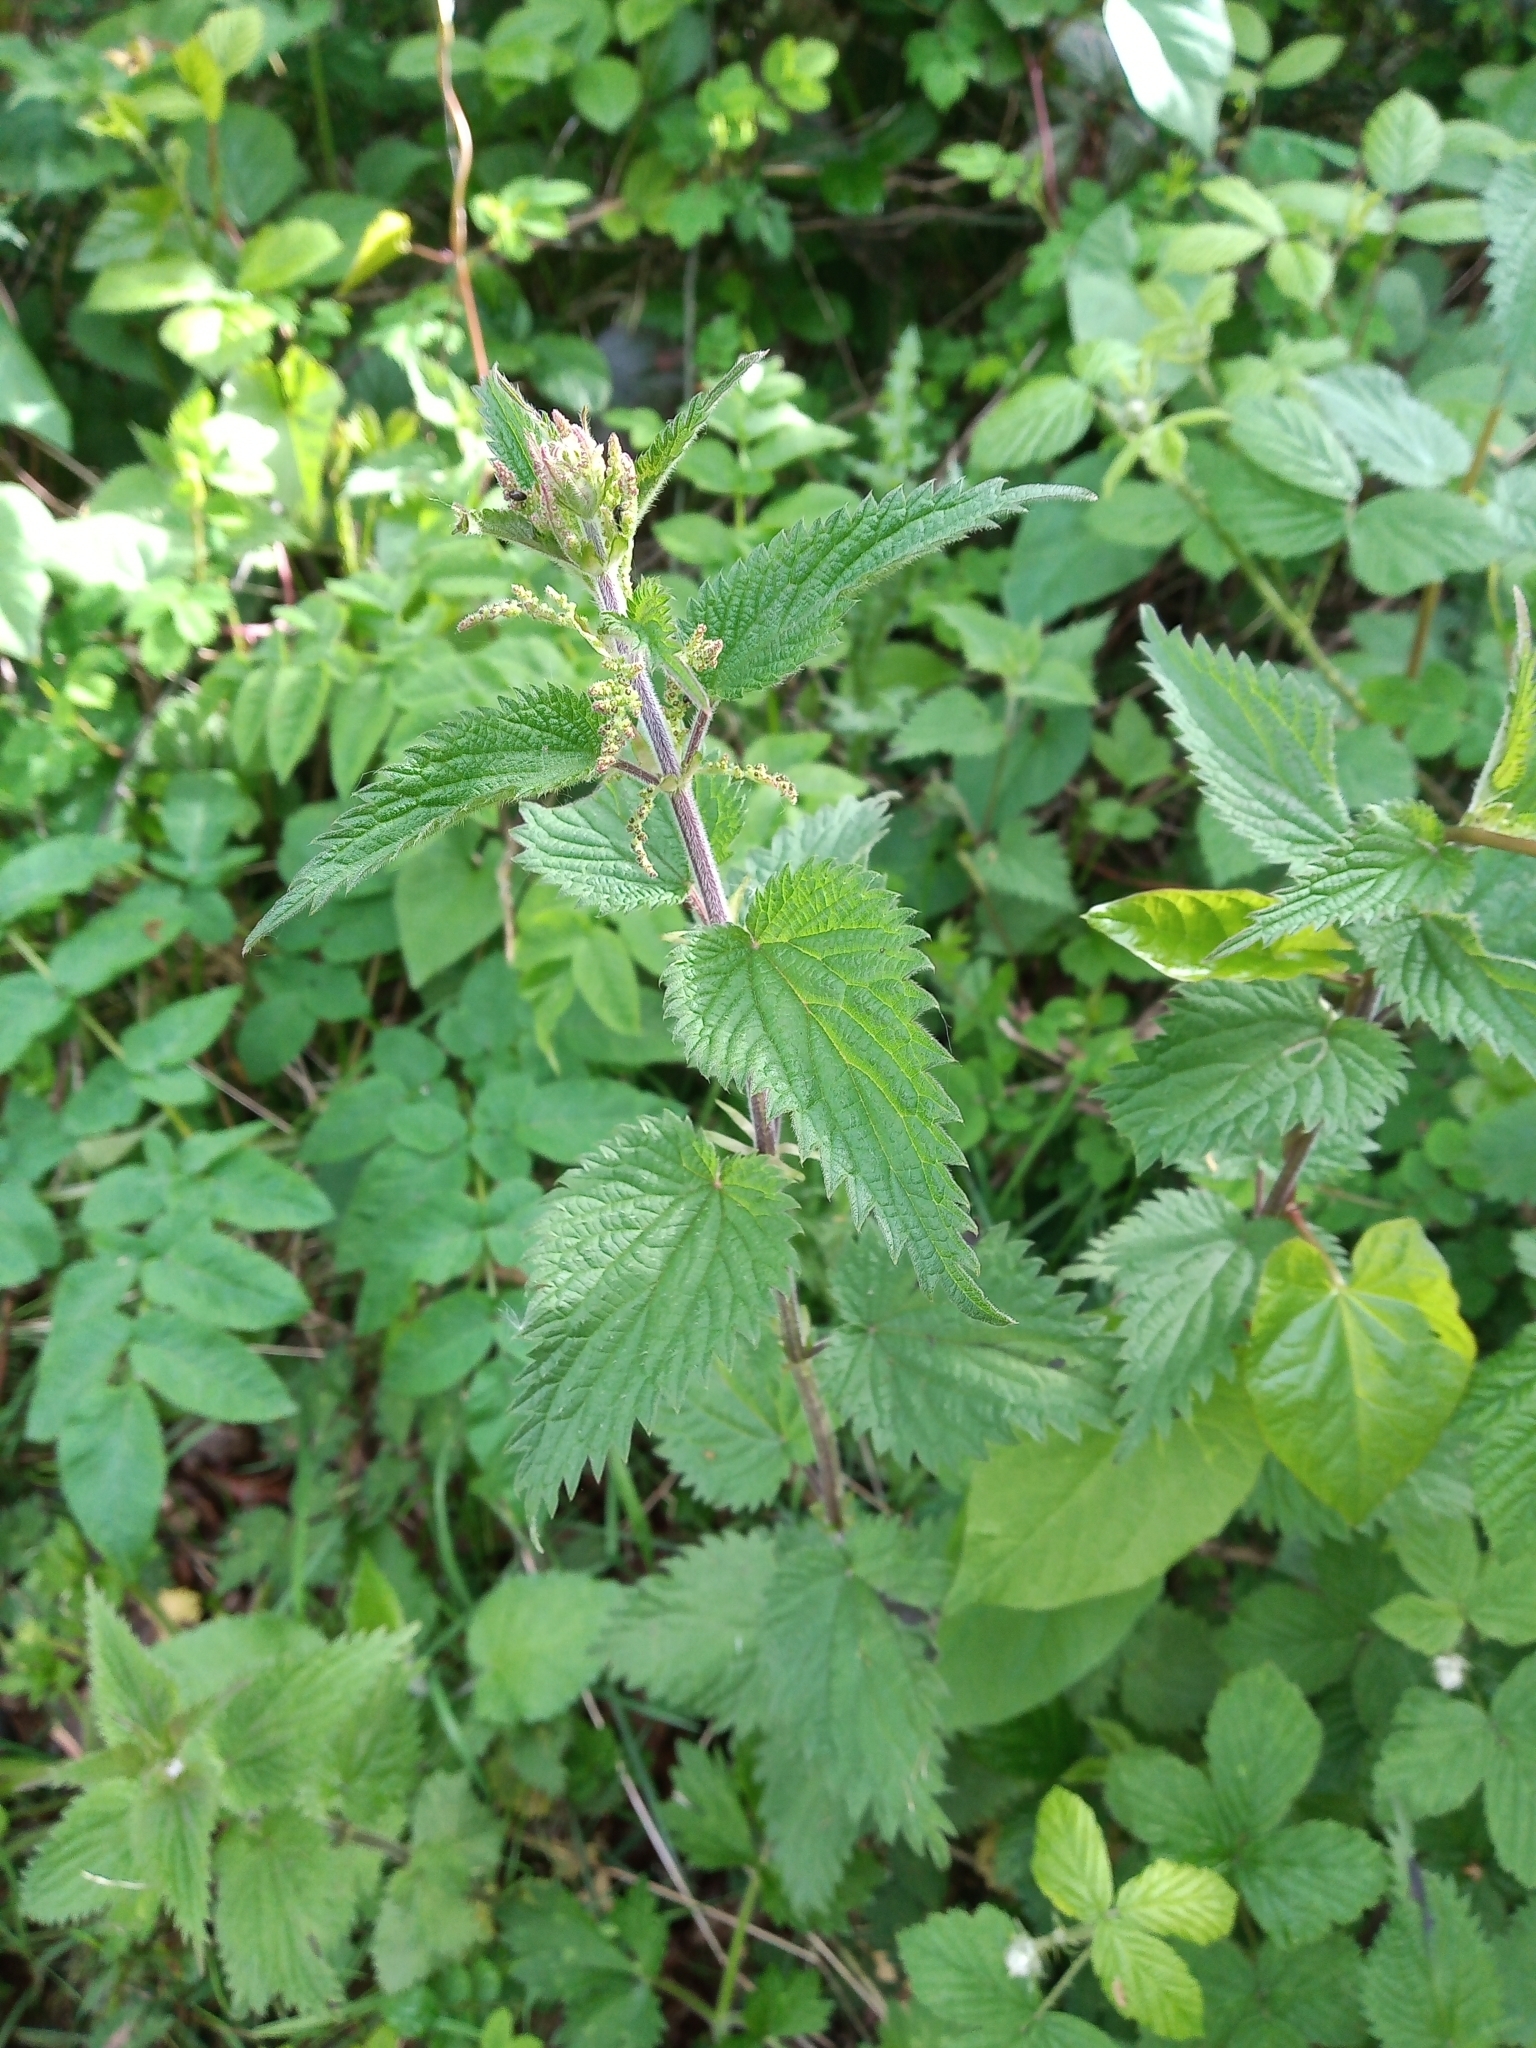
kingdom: Plantae
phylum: Tracheophyta
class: Magnoliopsida
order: Rosales
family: Urticaceae
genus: Urtica
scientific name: Urtica dioica
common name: Common nettle
